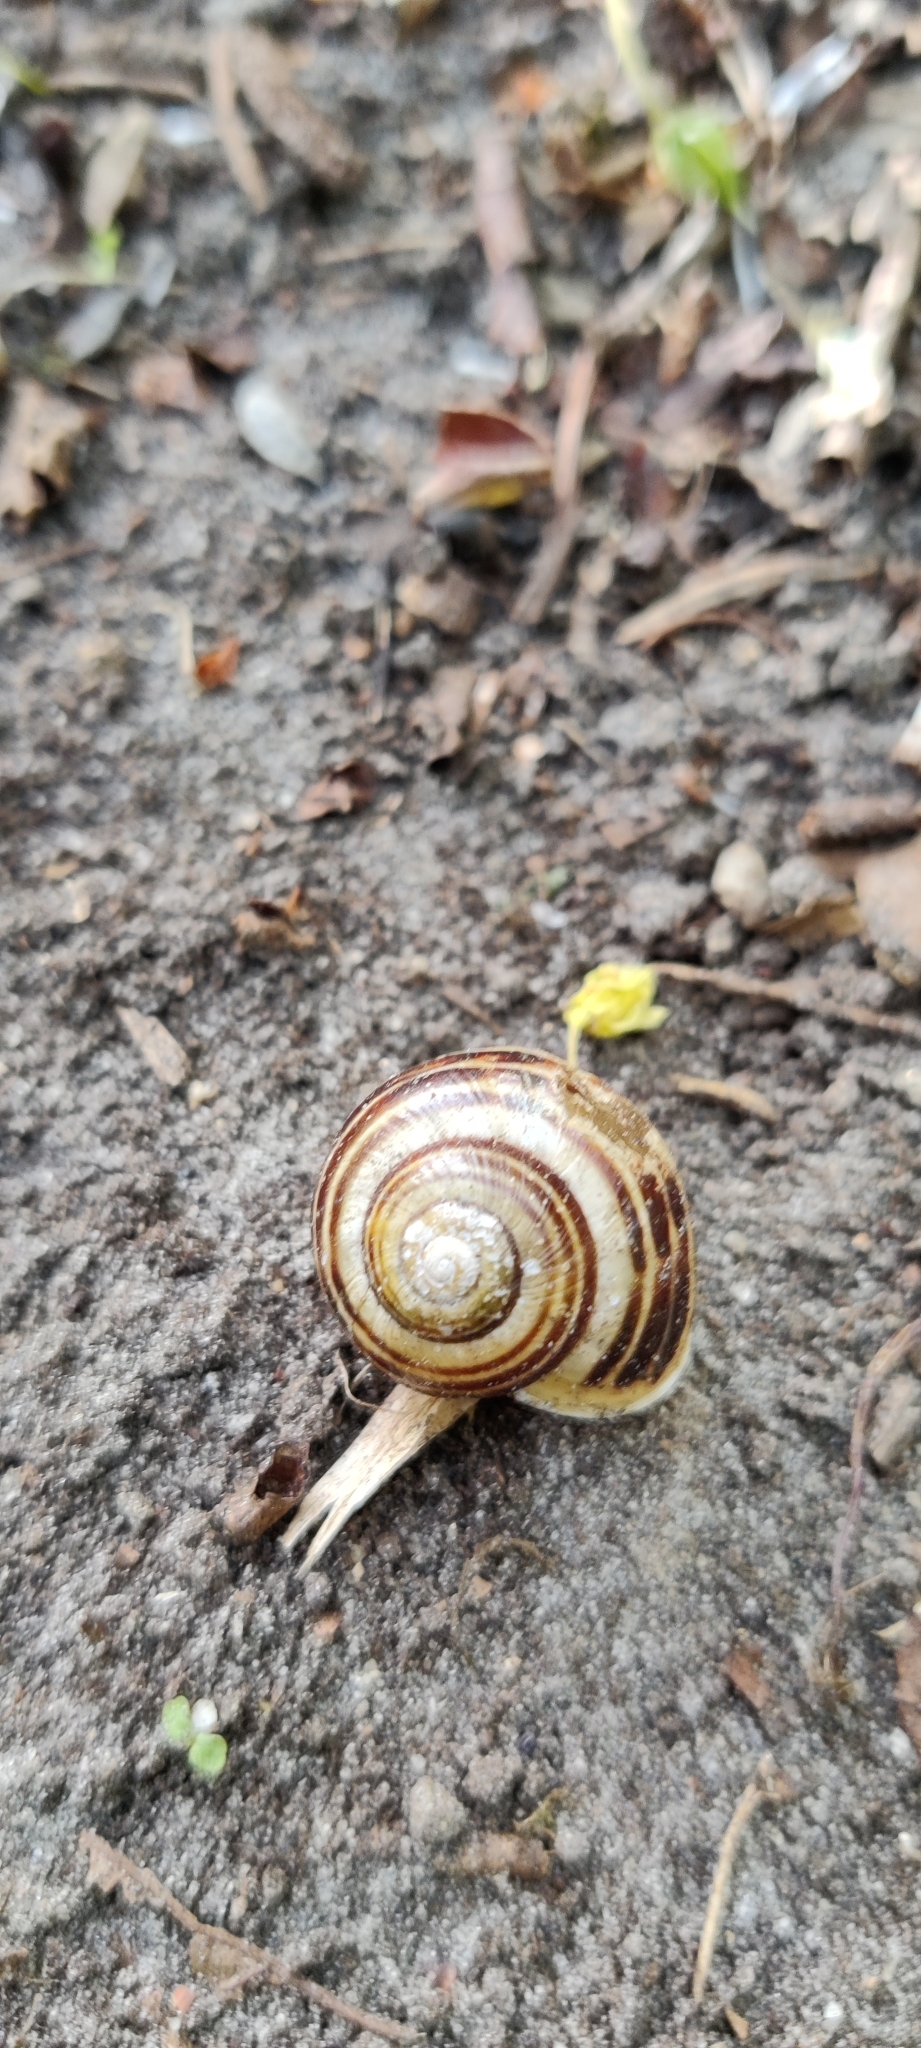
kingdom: Animalia
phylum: Mollusca
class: Gastropoda
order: Stylommatophora
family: Helicidae
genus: Cepaea
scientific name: Cepaea hortensis
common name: White-lip gardensnail
